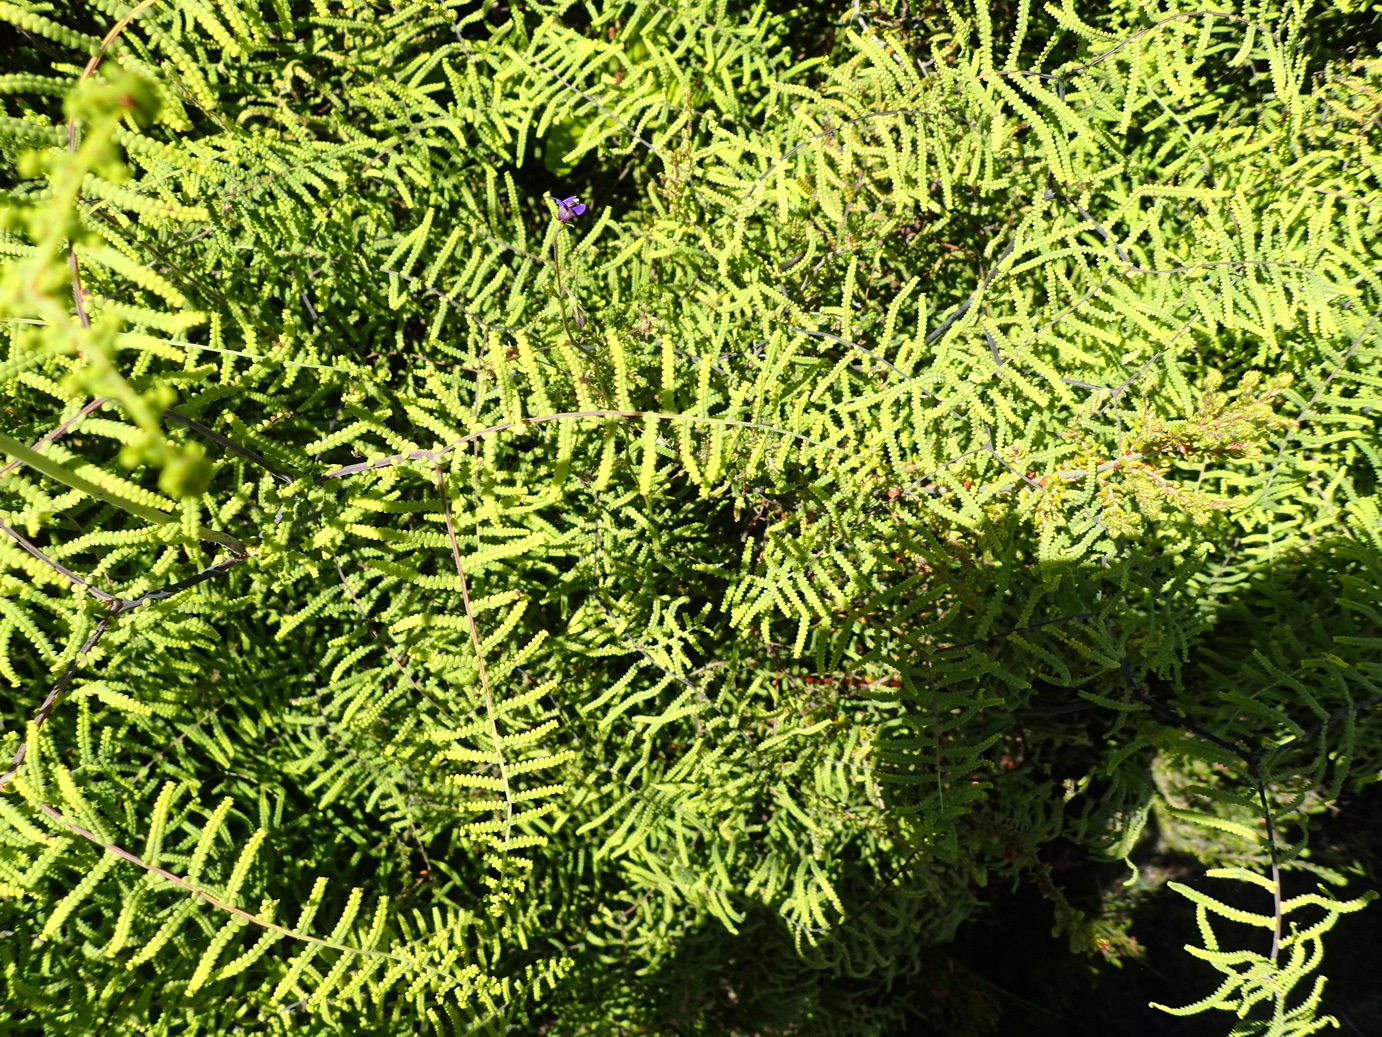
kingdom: Plantae
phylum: Tracheophyta
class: Polypodiopsida
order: Gleicheniales
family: Gleicheniaceae
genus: Gleichenia
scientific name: Gleichenia polypodioides
